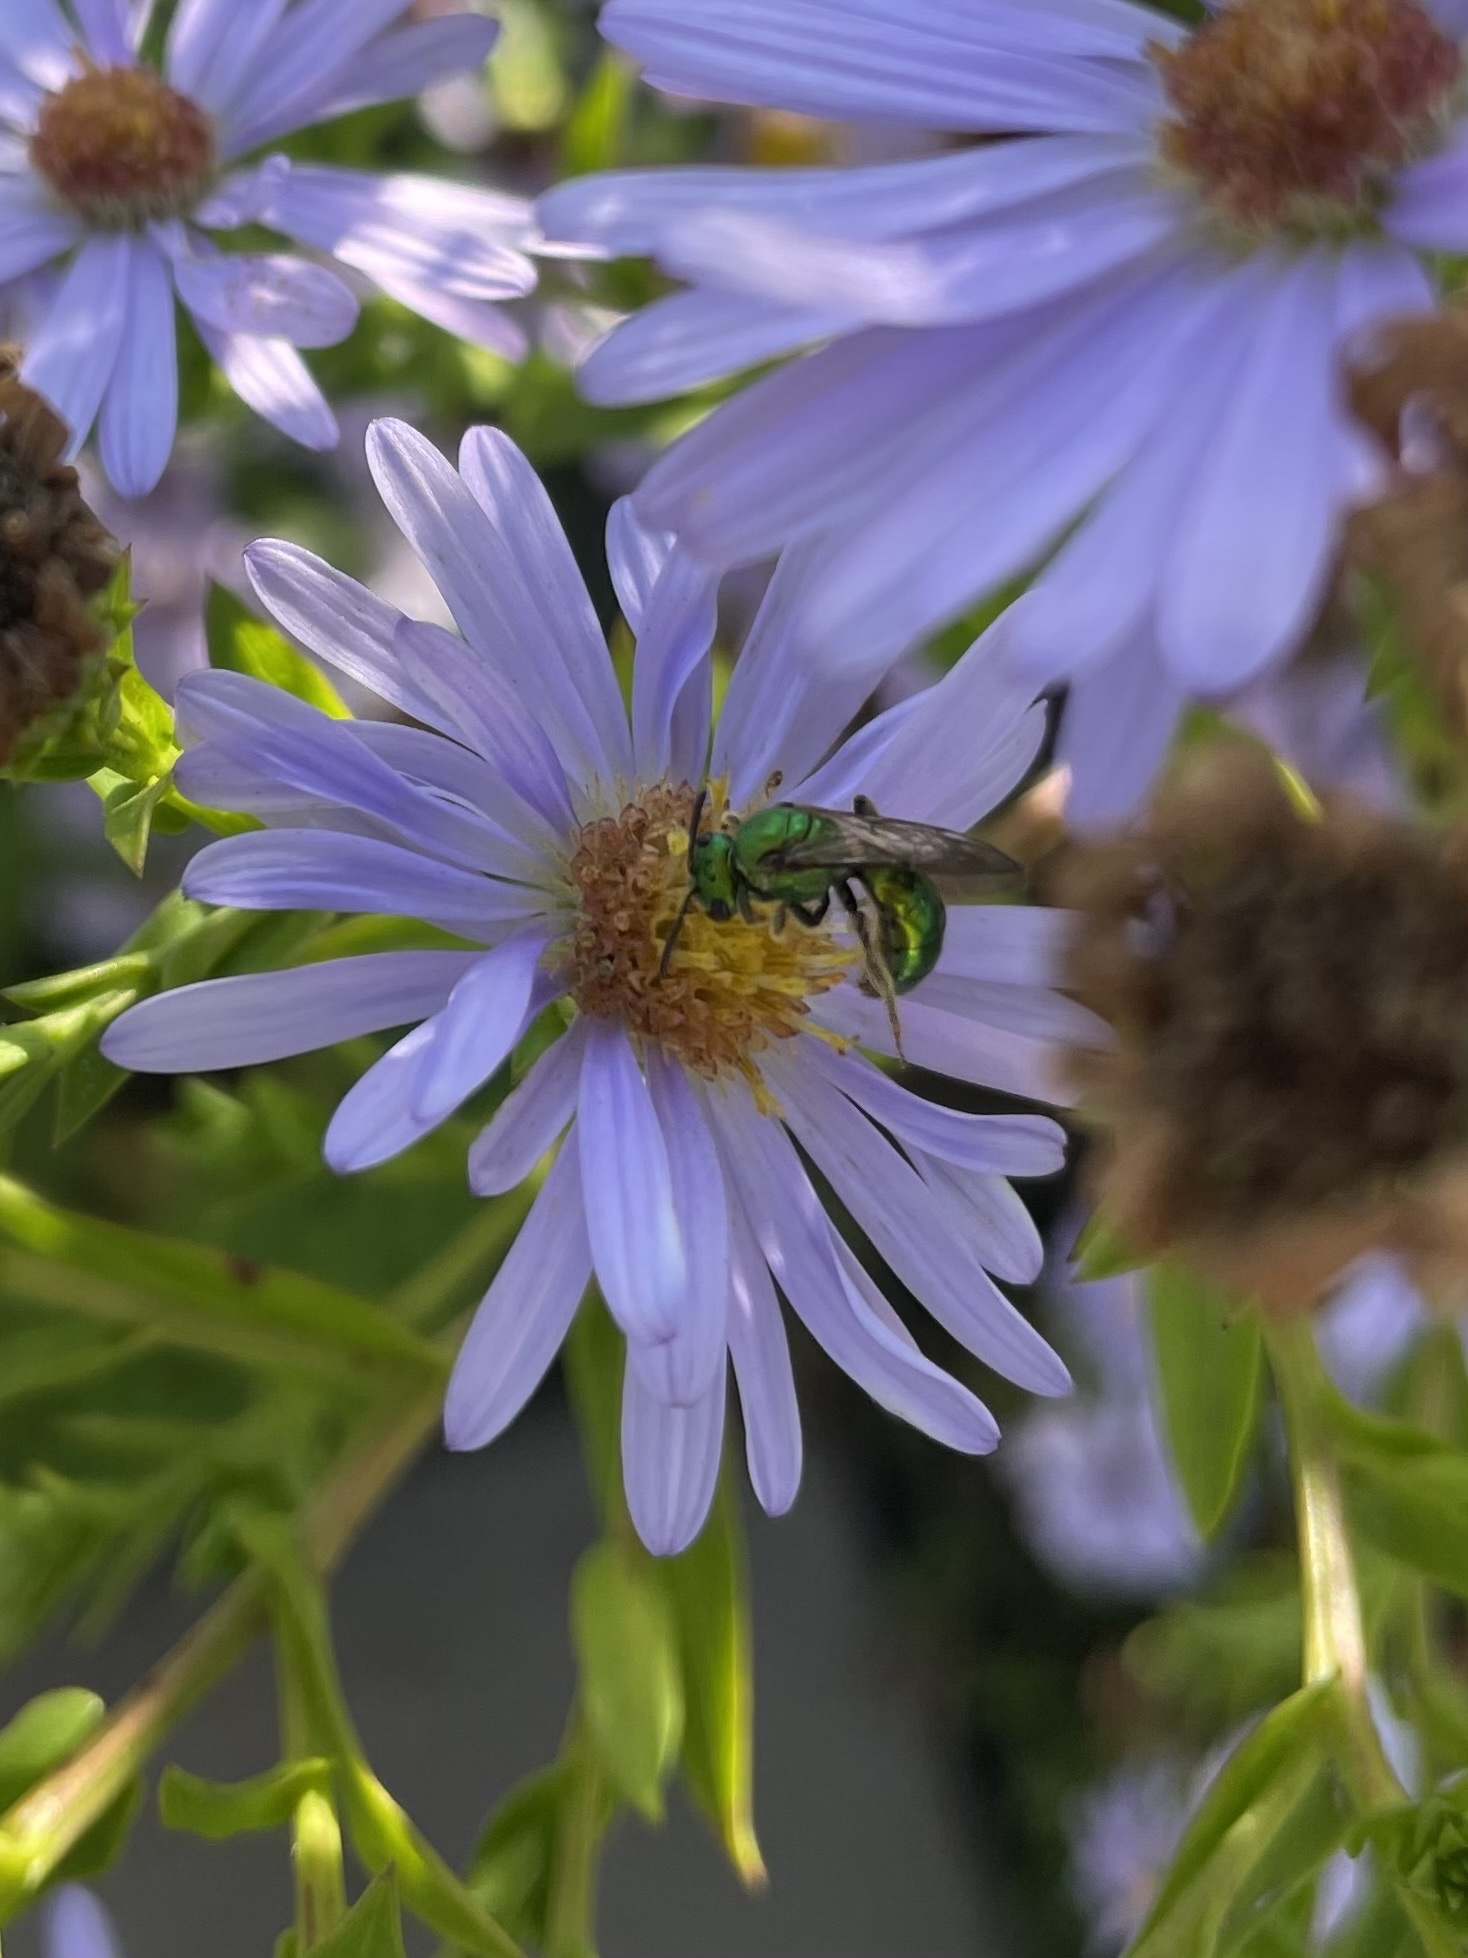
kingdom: Animalia
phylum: Arthropoda
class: Insecta
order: Hymenoptera
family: Halictidae
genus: Augochlora
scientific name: Augochlora pura
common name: Pure green sweat bee
